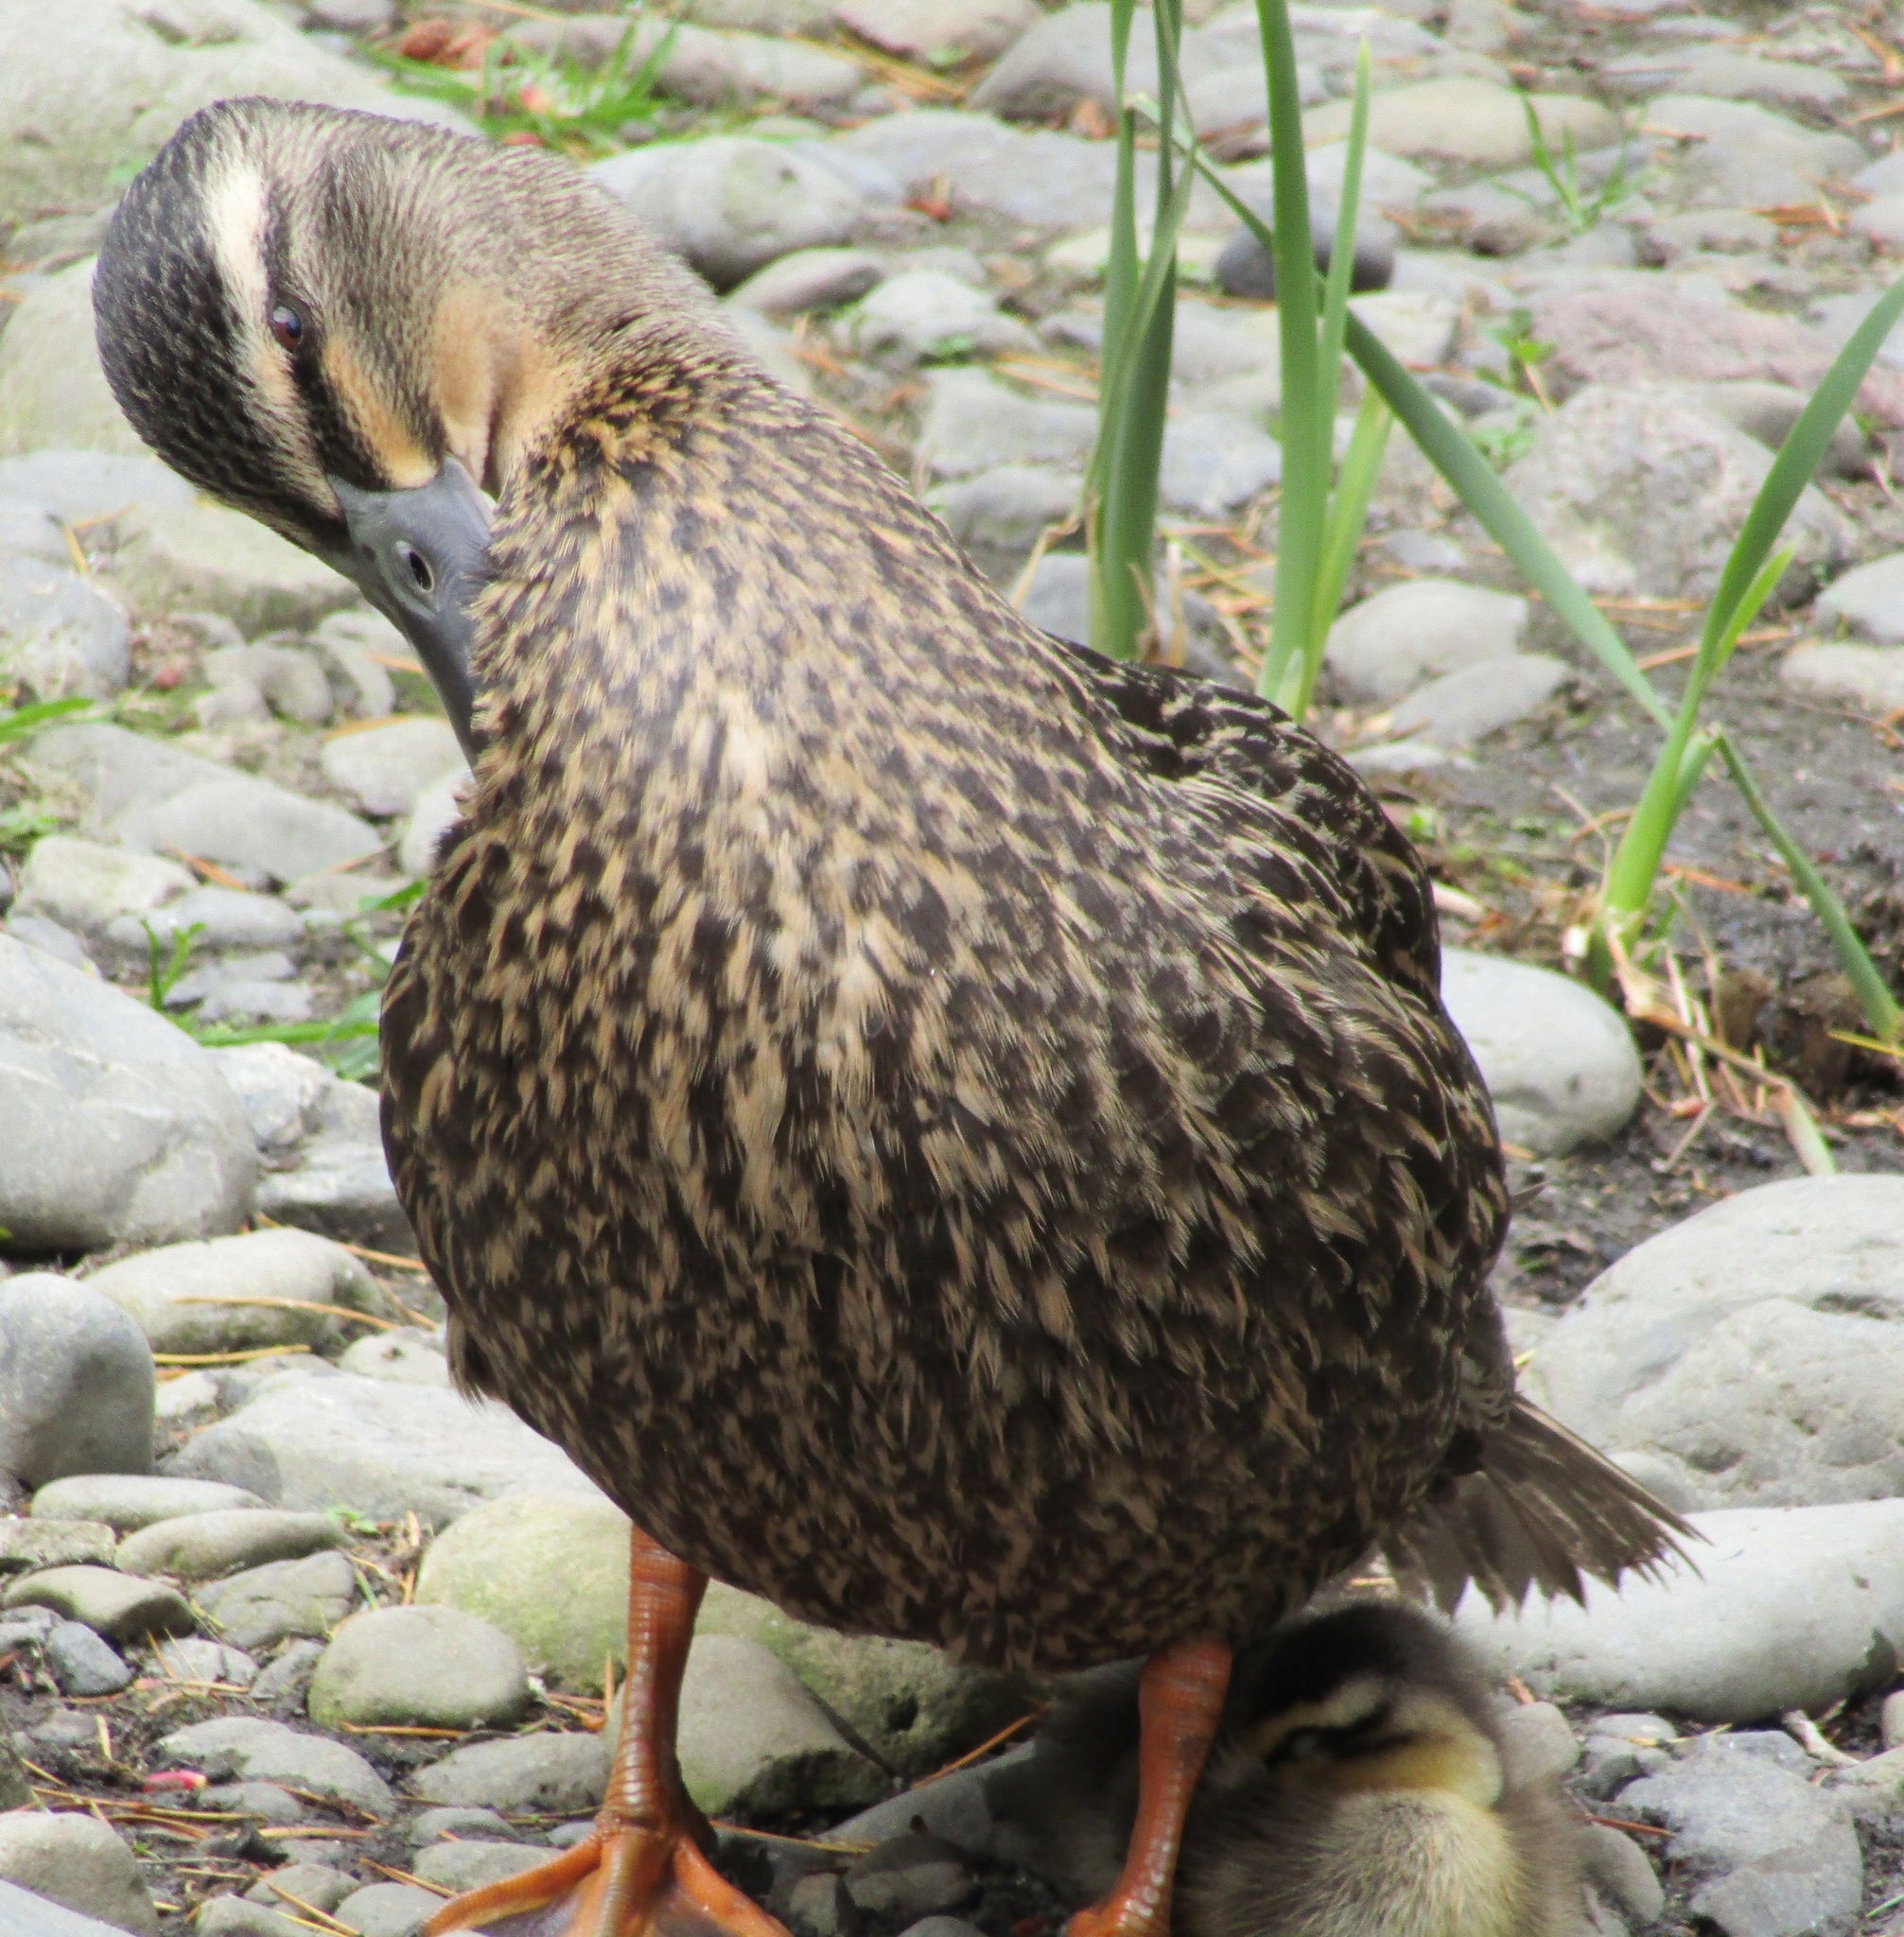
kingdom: Animalia
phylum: Chordata
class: Aves
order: Anseriformes
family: Anatidae
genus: Anas
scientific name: Anas
